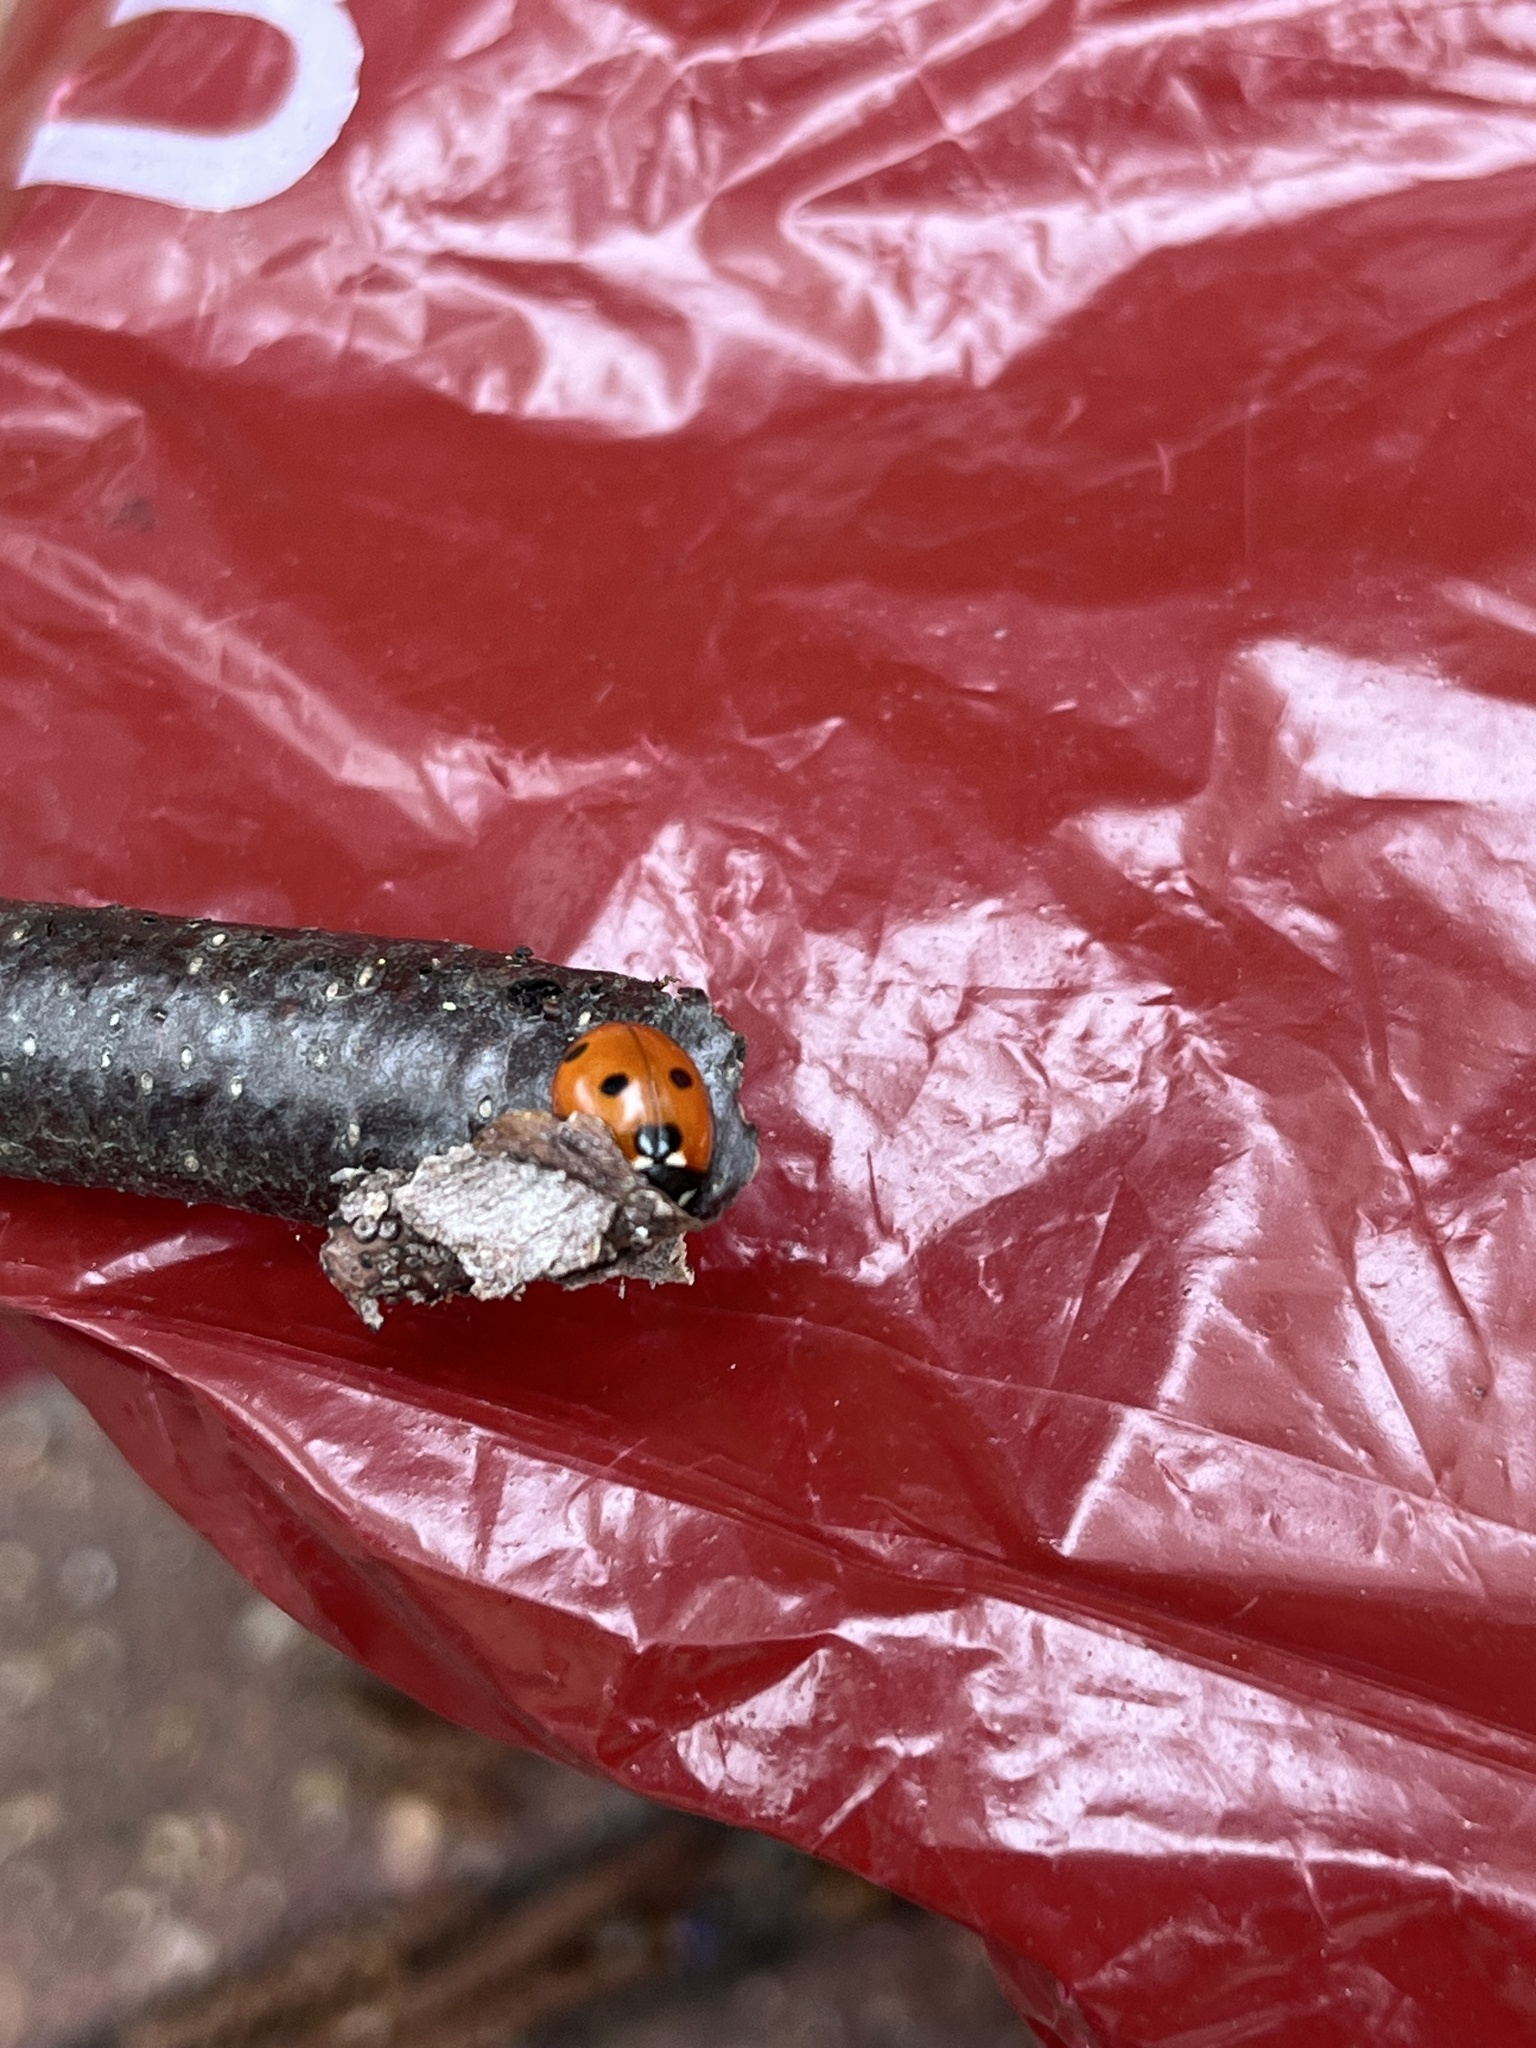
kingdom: Animalia
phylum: Arthropoda
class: Insecta
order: Coleoptera
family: Coccinellidae
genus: Coccinella
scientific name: Coccinella septempunctata
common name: Sevenspotted lady beetle
